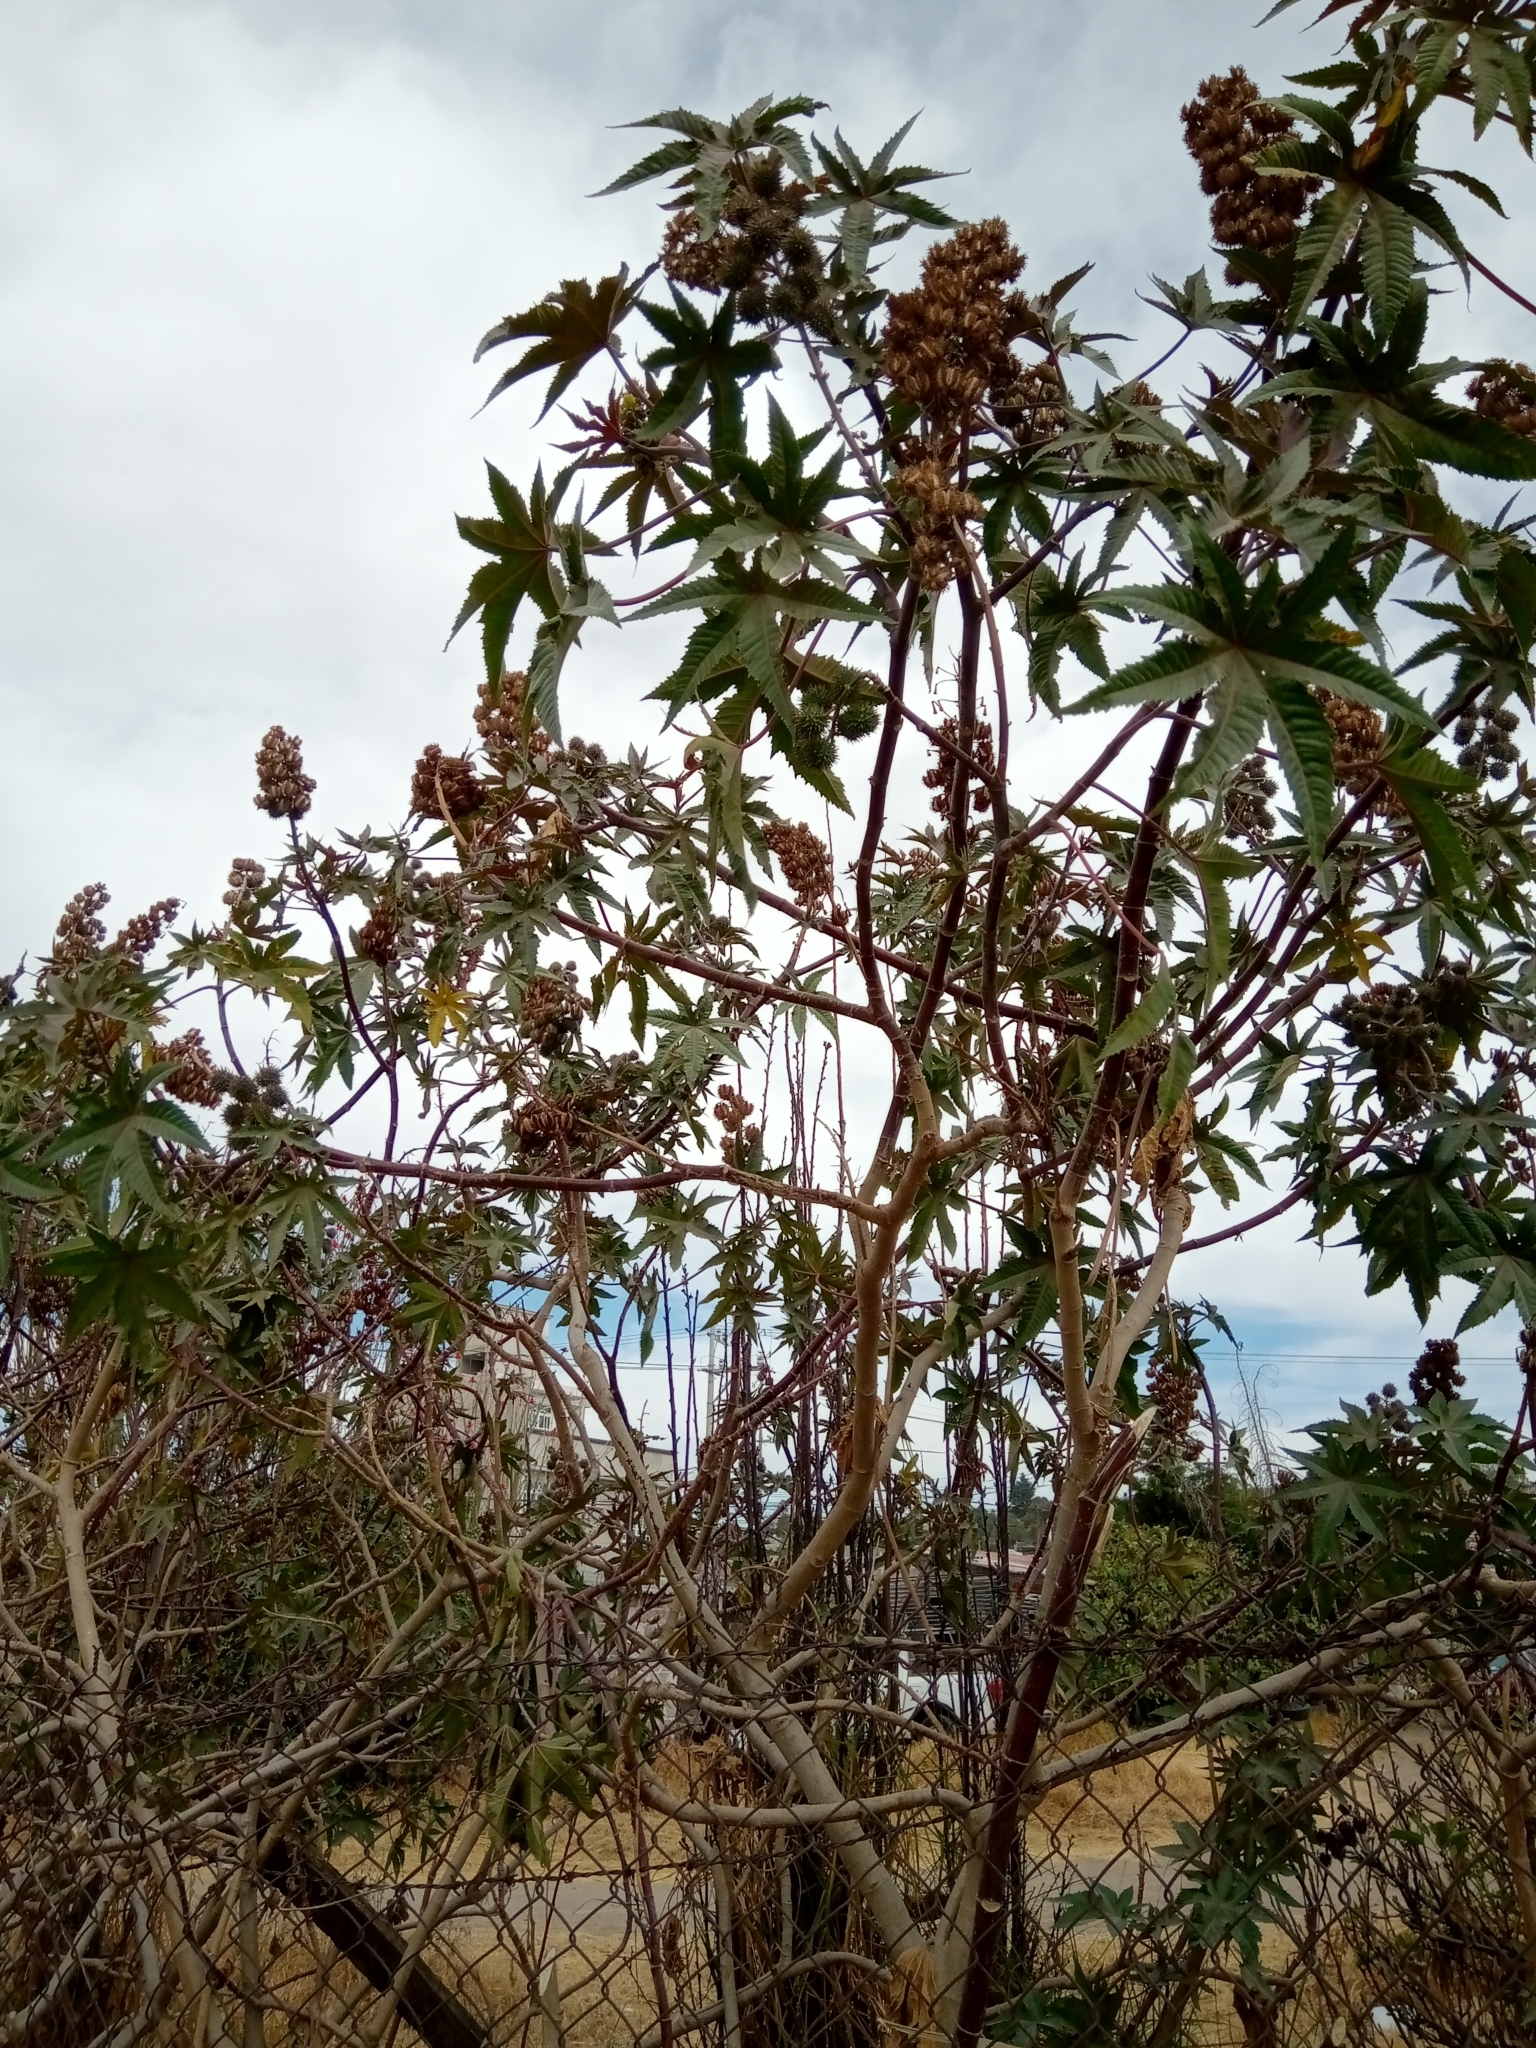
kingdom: Plantae
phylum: Tracheophyta
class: Magnoliopsida
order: Malpighiales
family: Euphorbiaceae
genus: Ricinus
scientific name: Ricinus communis
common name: Castor-oil-plant
